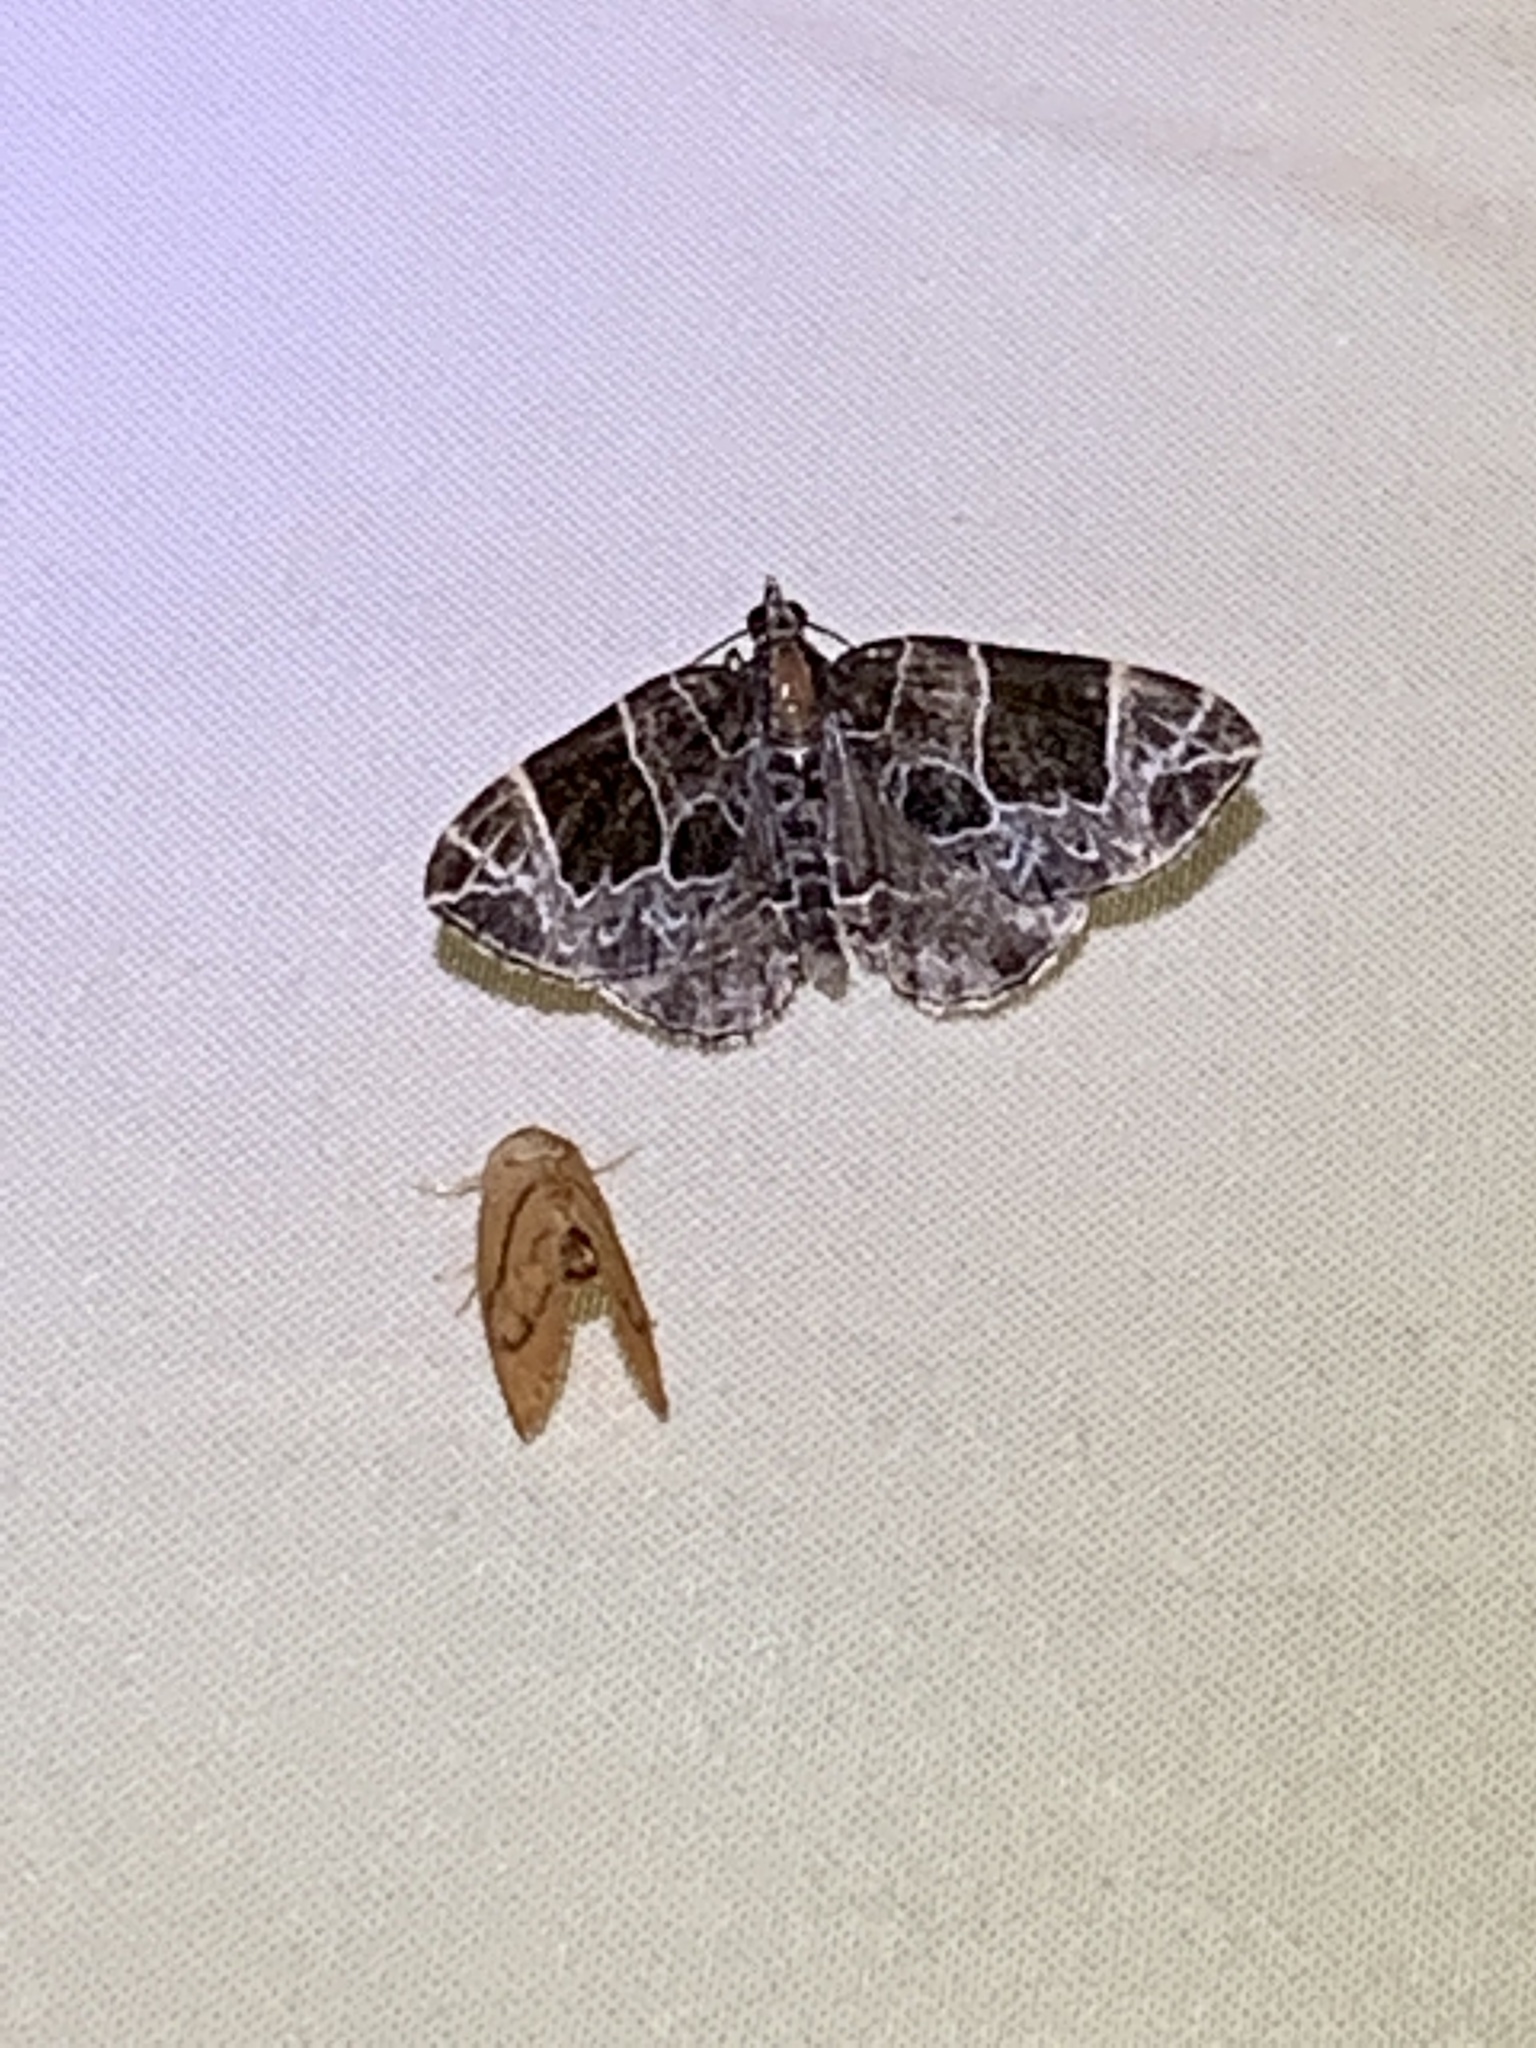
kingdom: Animalia
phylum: Arthropoda
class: Insecta
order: Lepidoptera
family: Geometridae
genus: Ecliptopera
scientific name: Ecliptopera atricolorata
